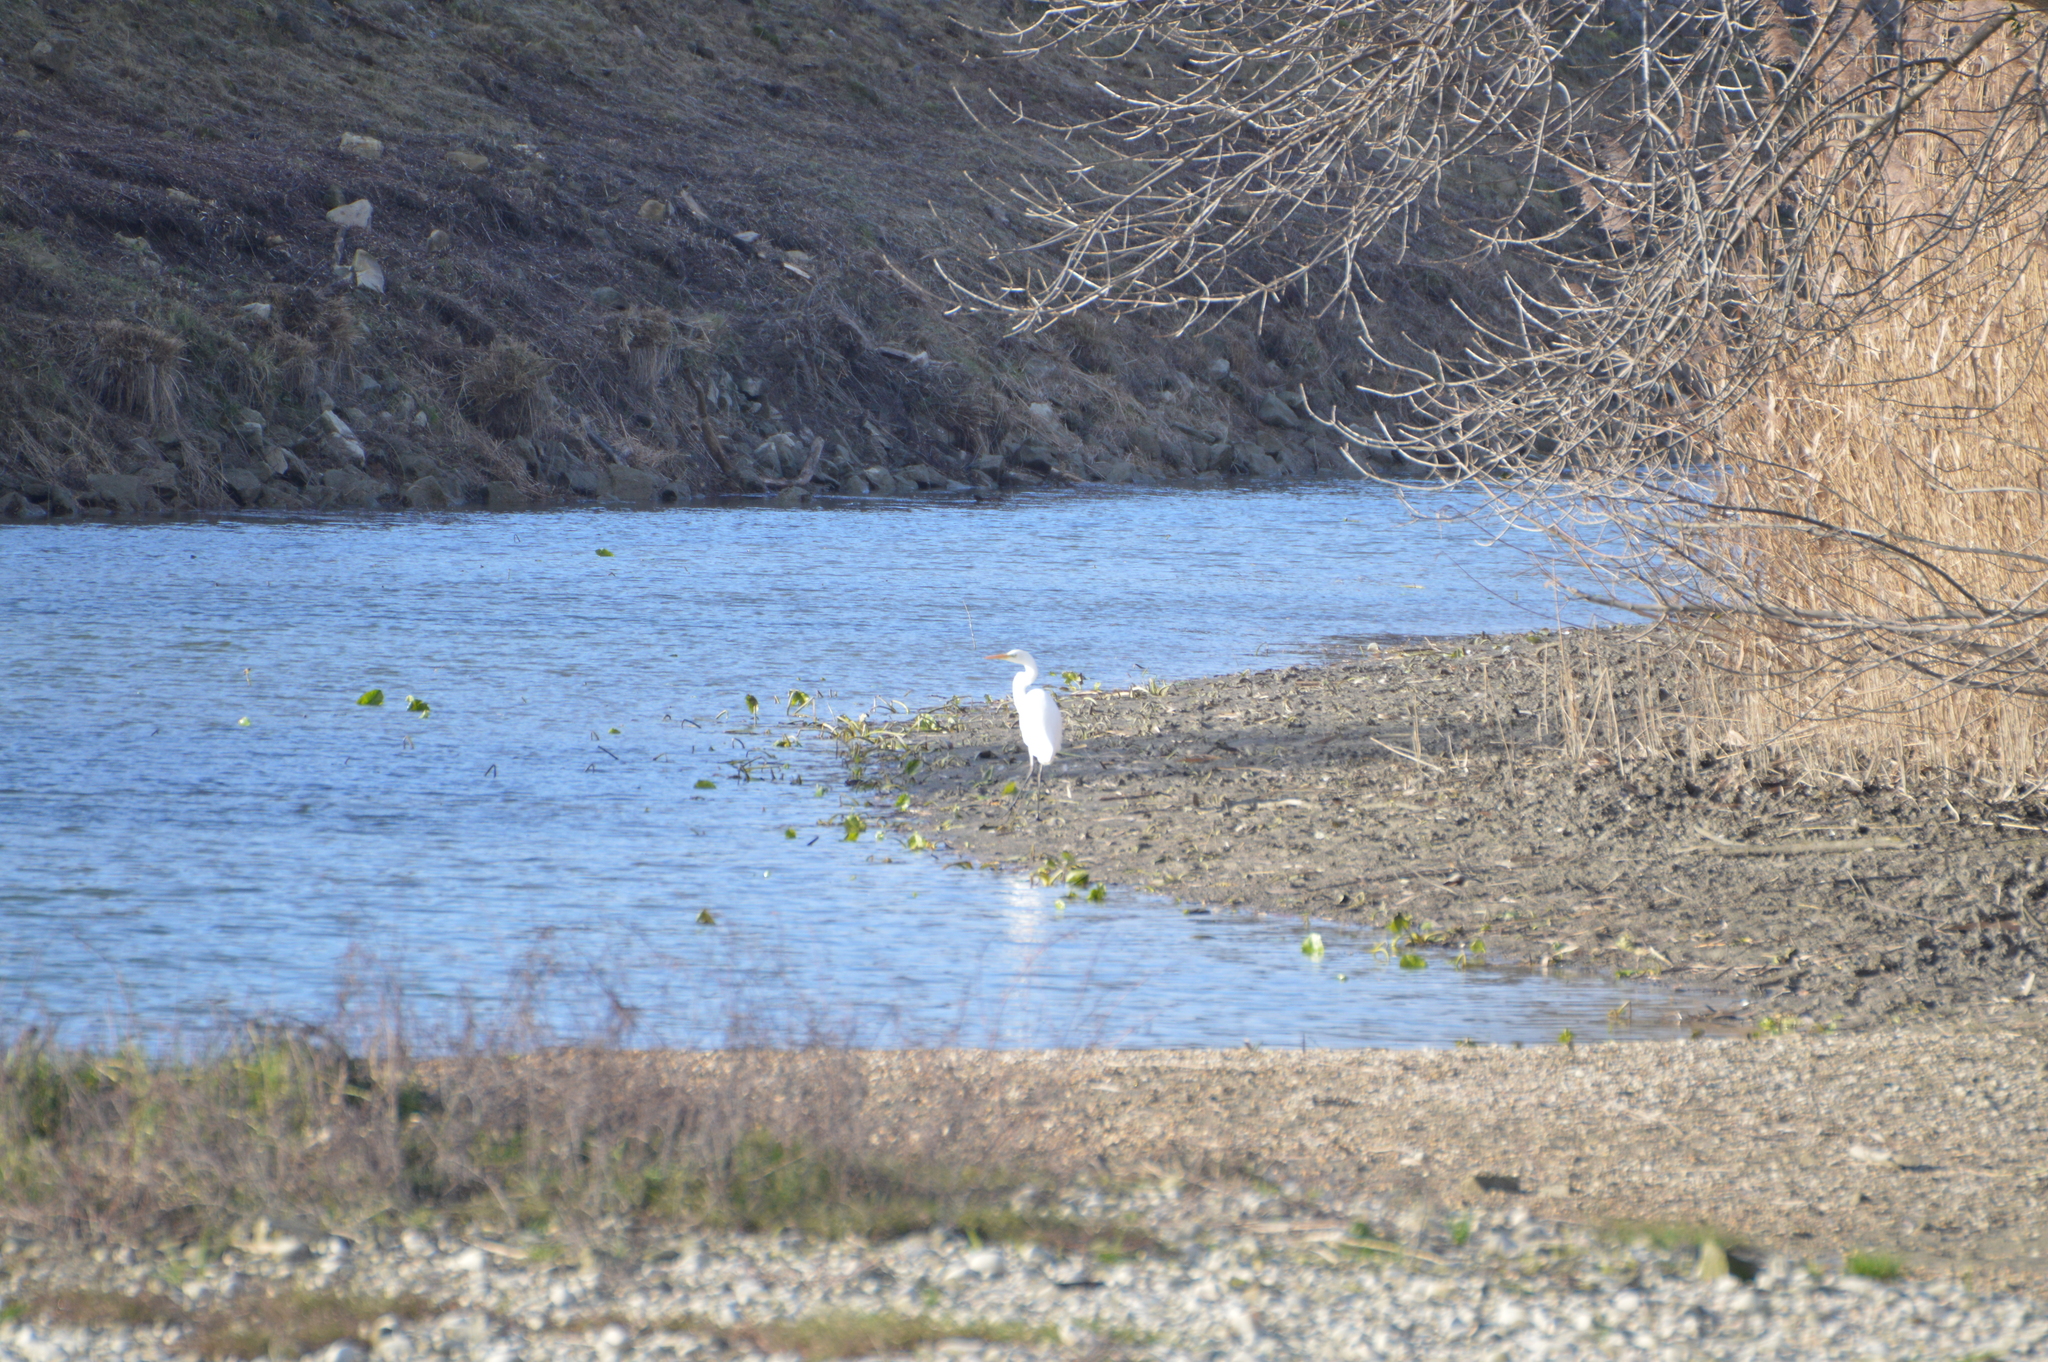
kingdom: Animalia
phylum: Chordata
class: Aves
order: Pelecaniformes
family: Ardeidae
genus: Ardea
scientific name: Ardea alba
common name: Great egret
